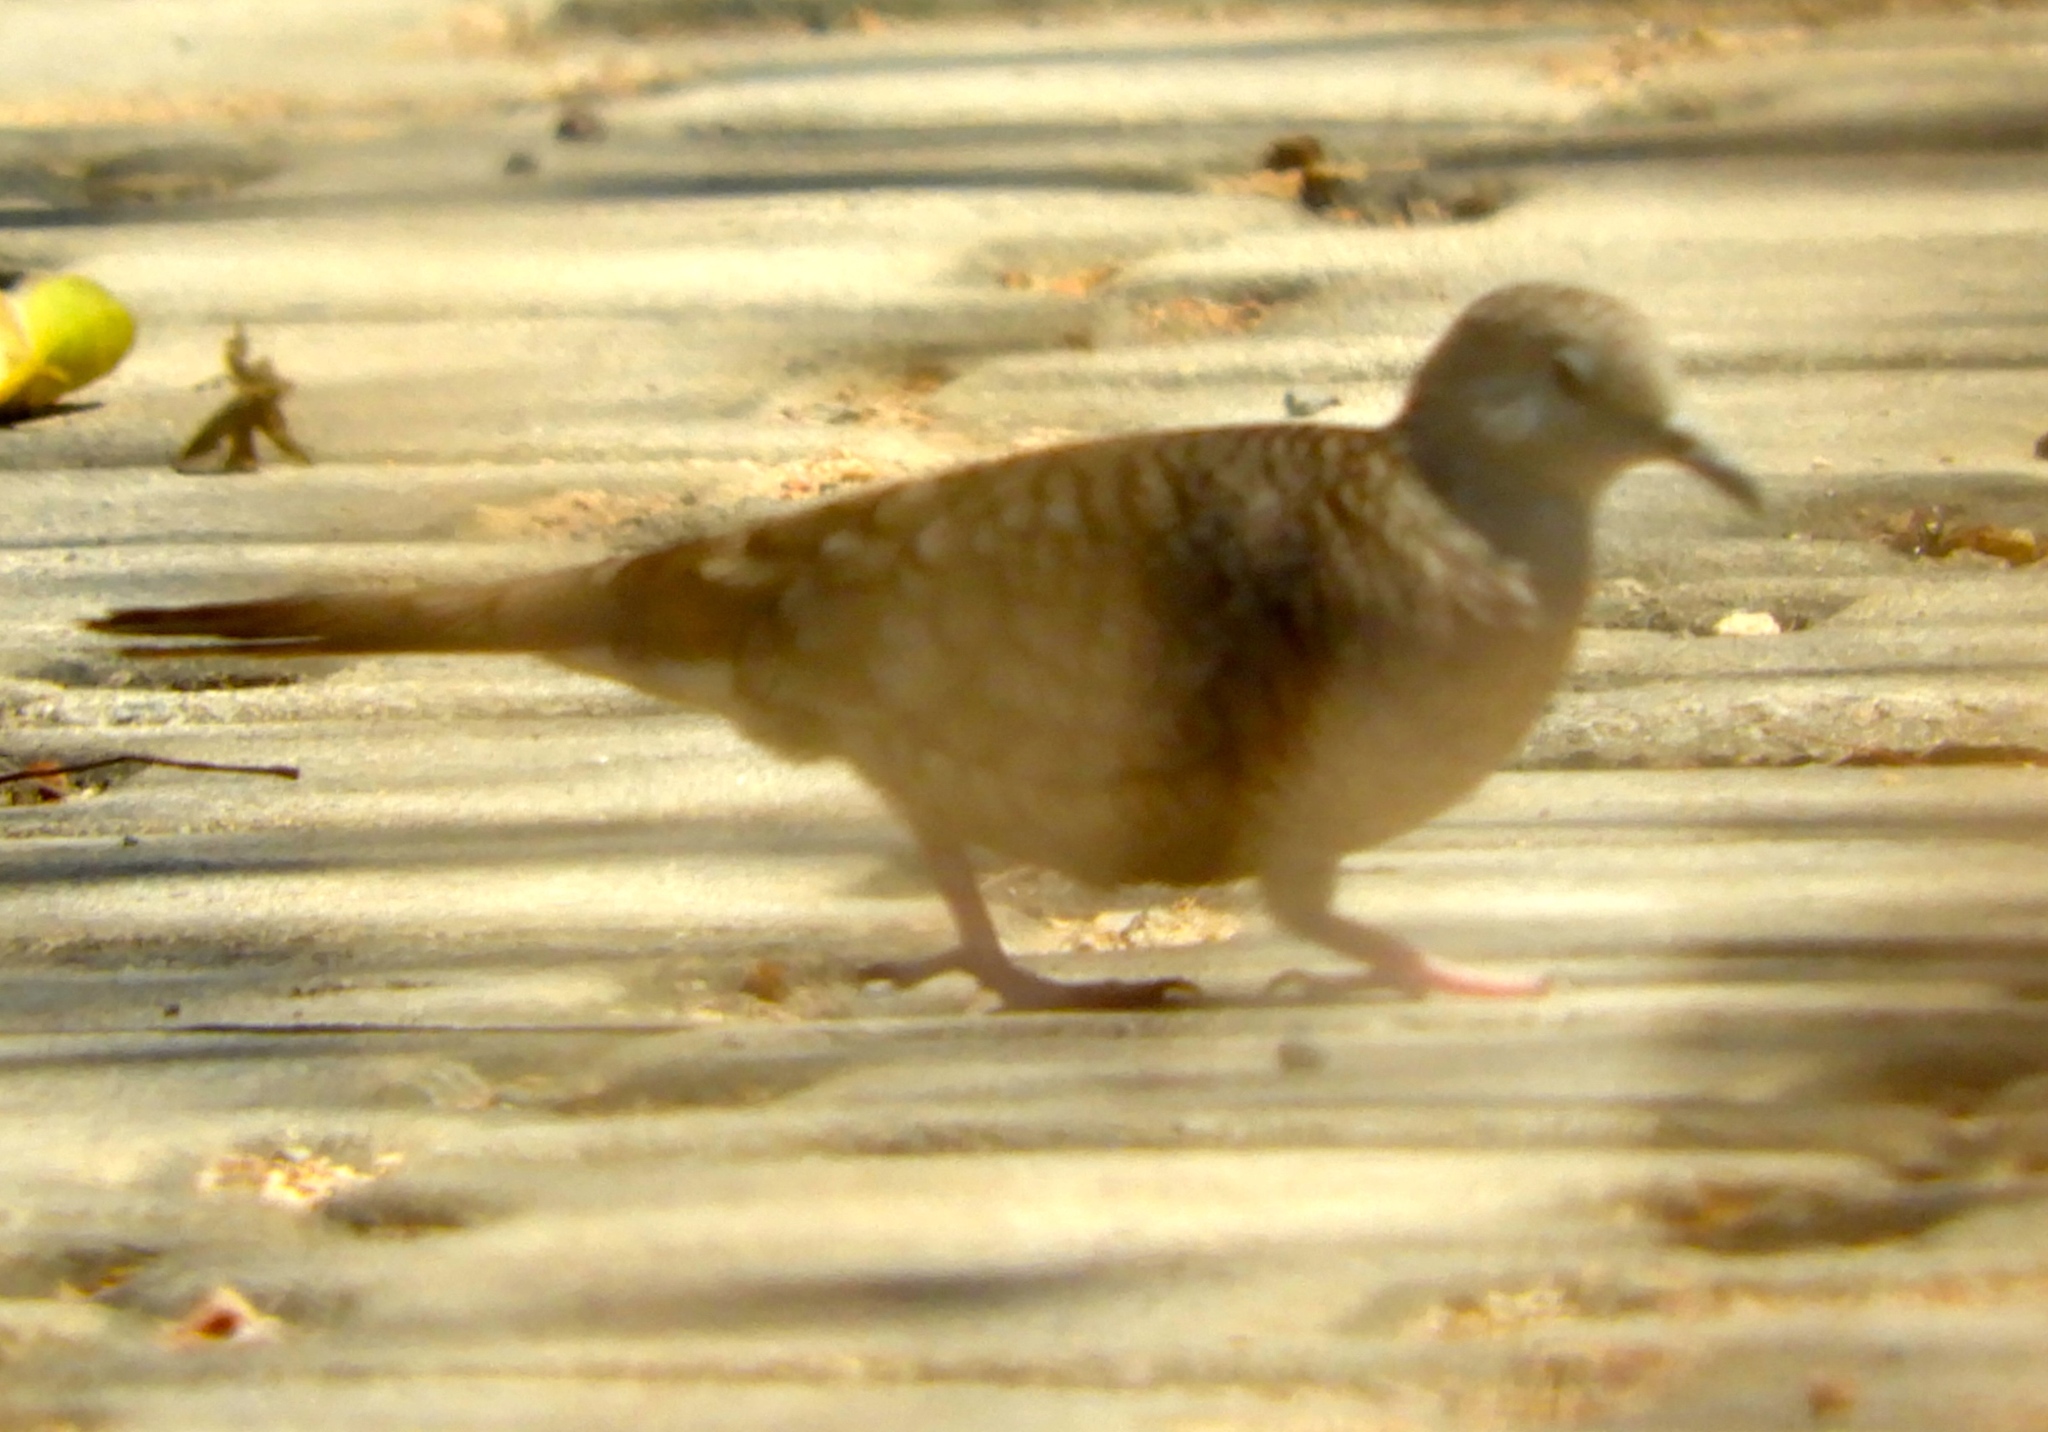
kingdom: Animalia
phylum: Chordata
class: Aves
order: Columbiformes
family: Columbidae
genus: Columbina
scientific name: Columbina inca
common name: Inca dove
